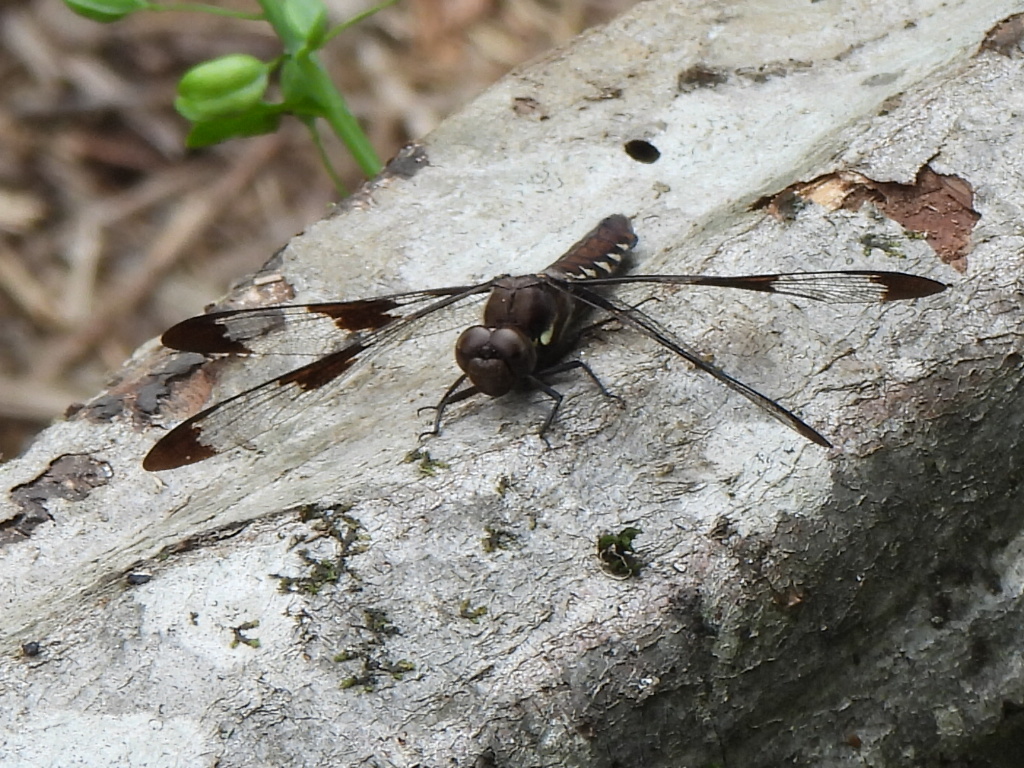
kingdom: Animalia
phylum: Arthropoda
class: Insecta
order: Odonata
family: Libellulidae
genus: Plathemis
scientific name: Plathemis lydia
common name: Common whitetail
